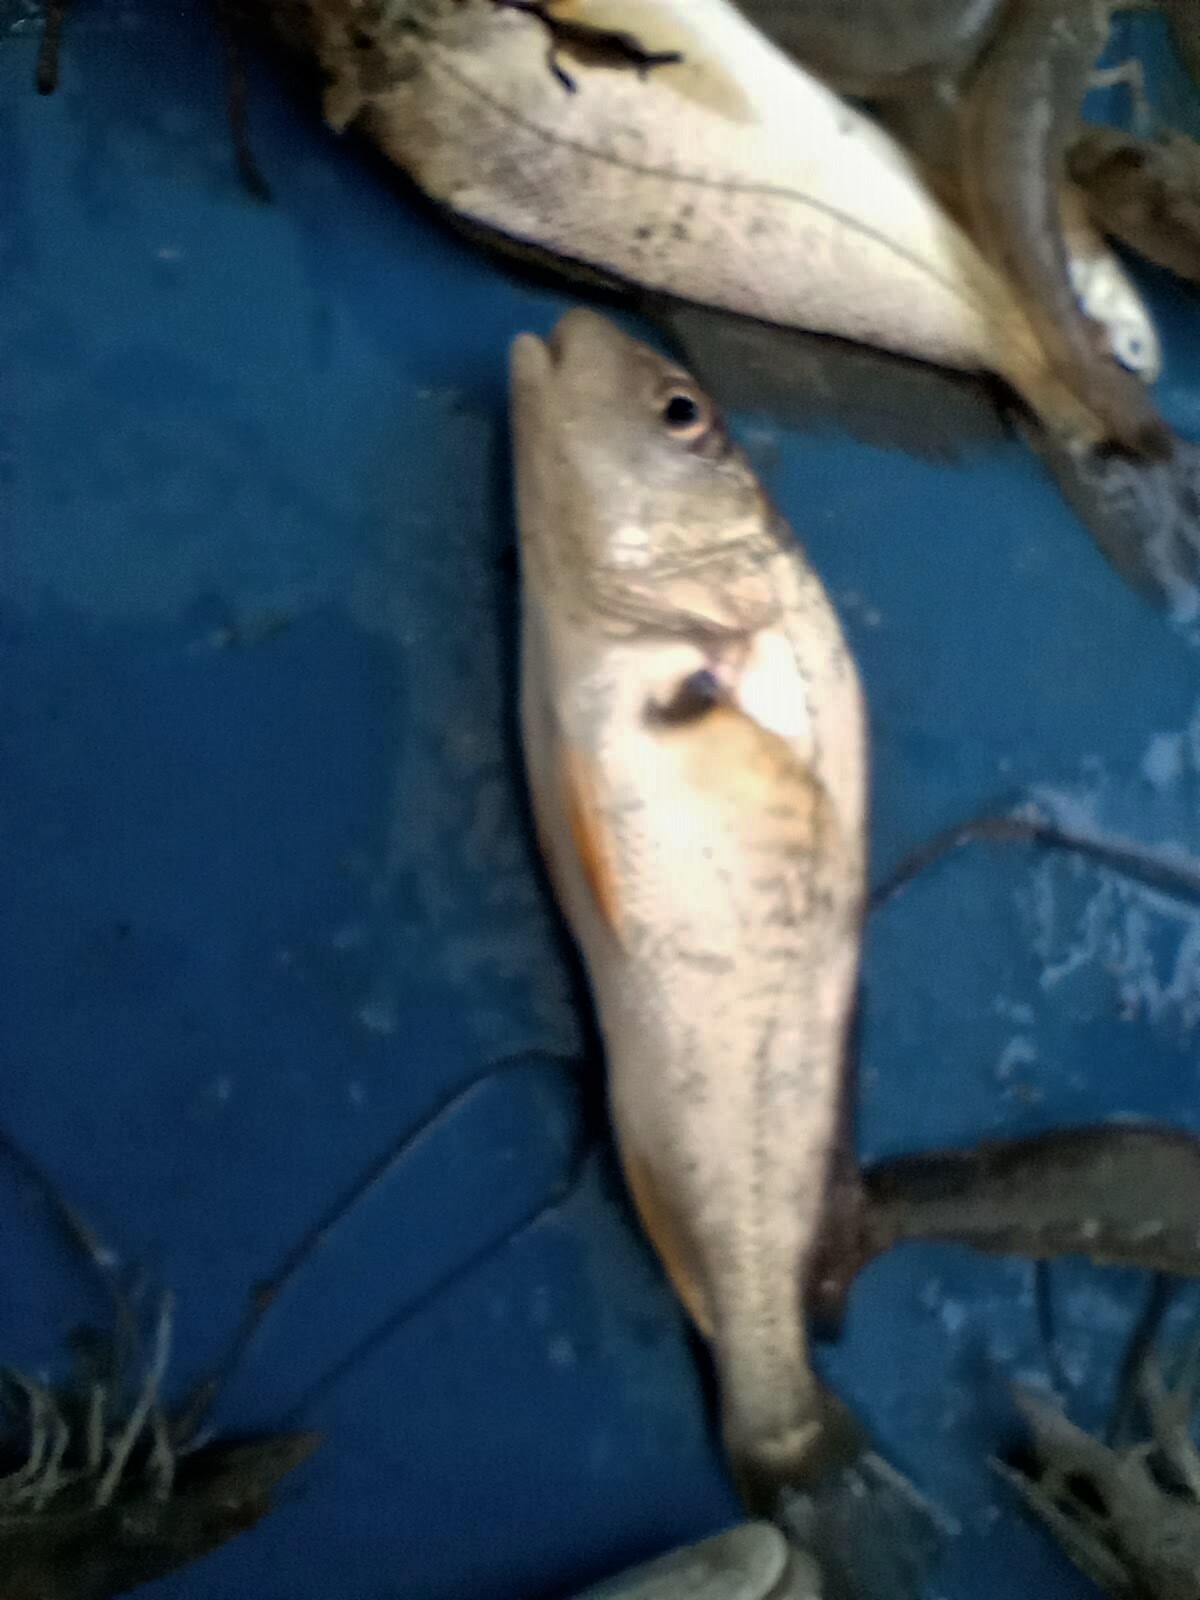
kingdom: Animalia
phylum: Chordata
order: Perciformes
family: Sciaenidae
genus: Micropogonias
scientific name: Micropogonias undulatus
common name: Atlantic croaker
